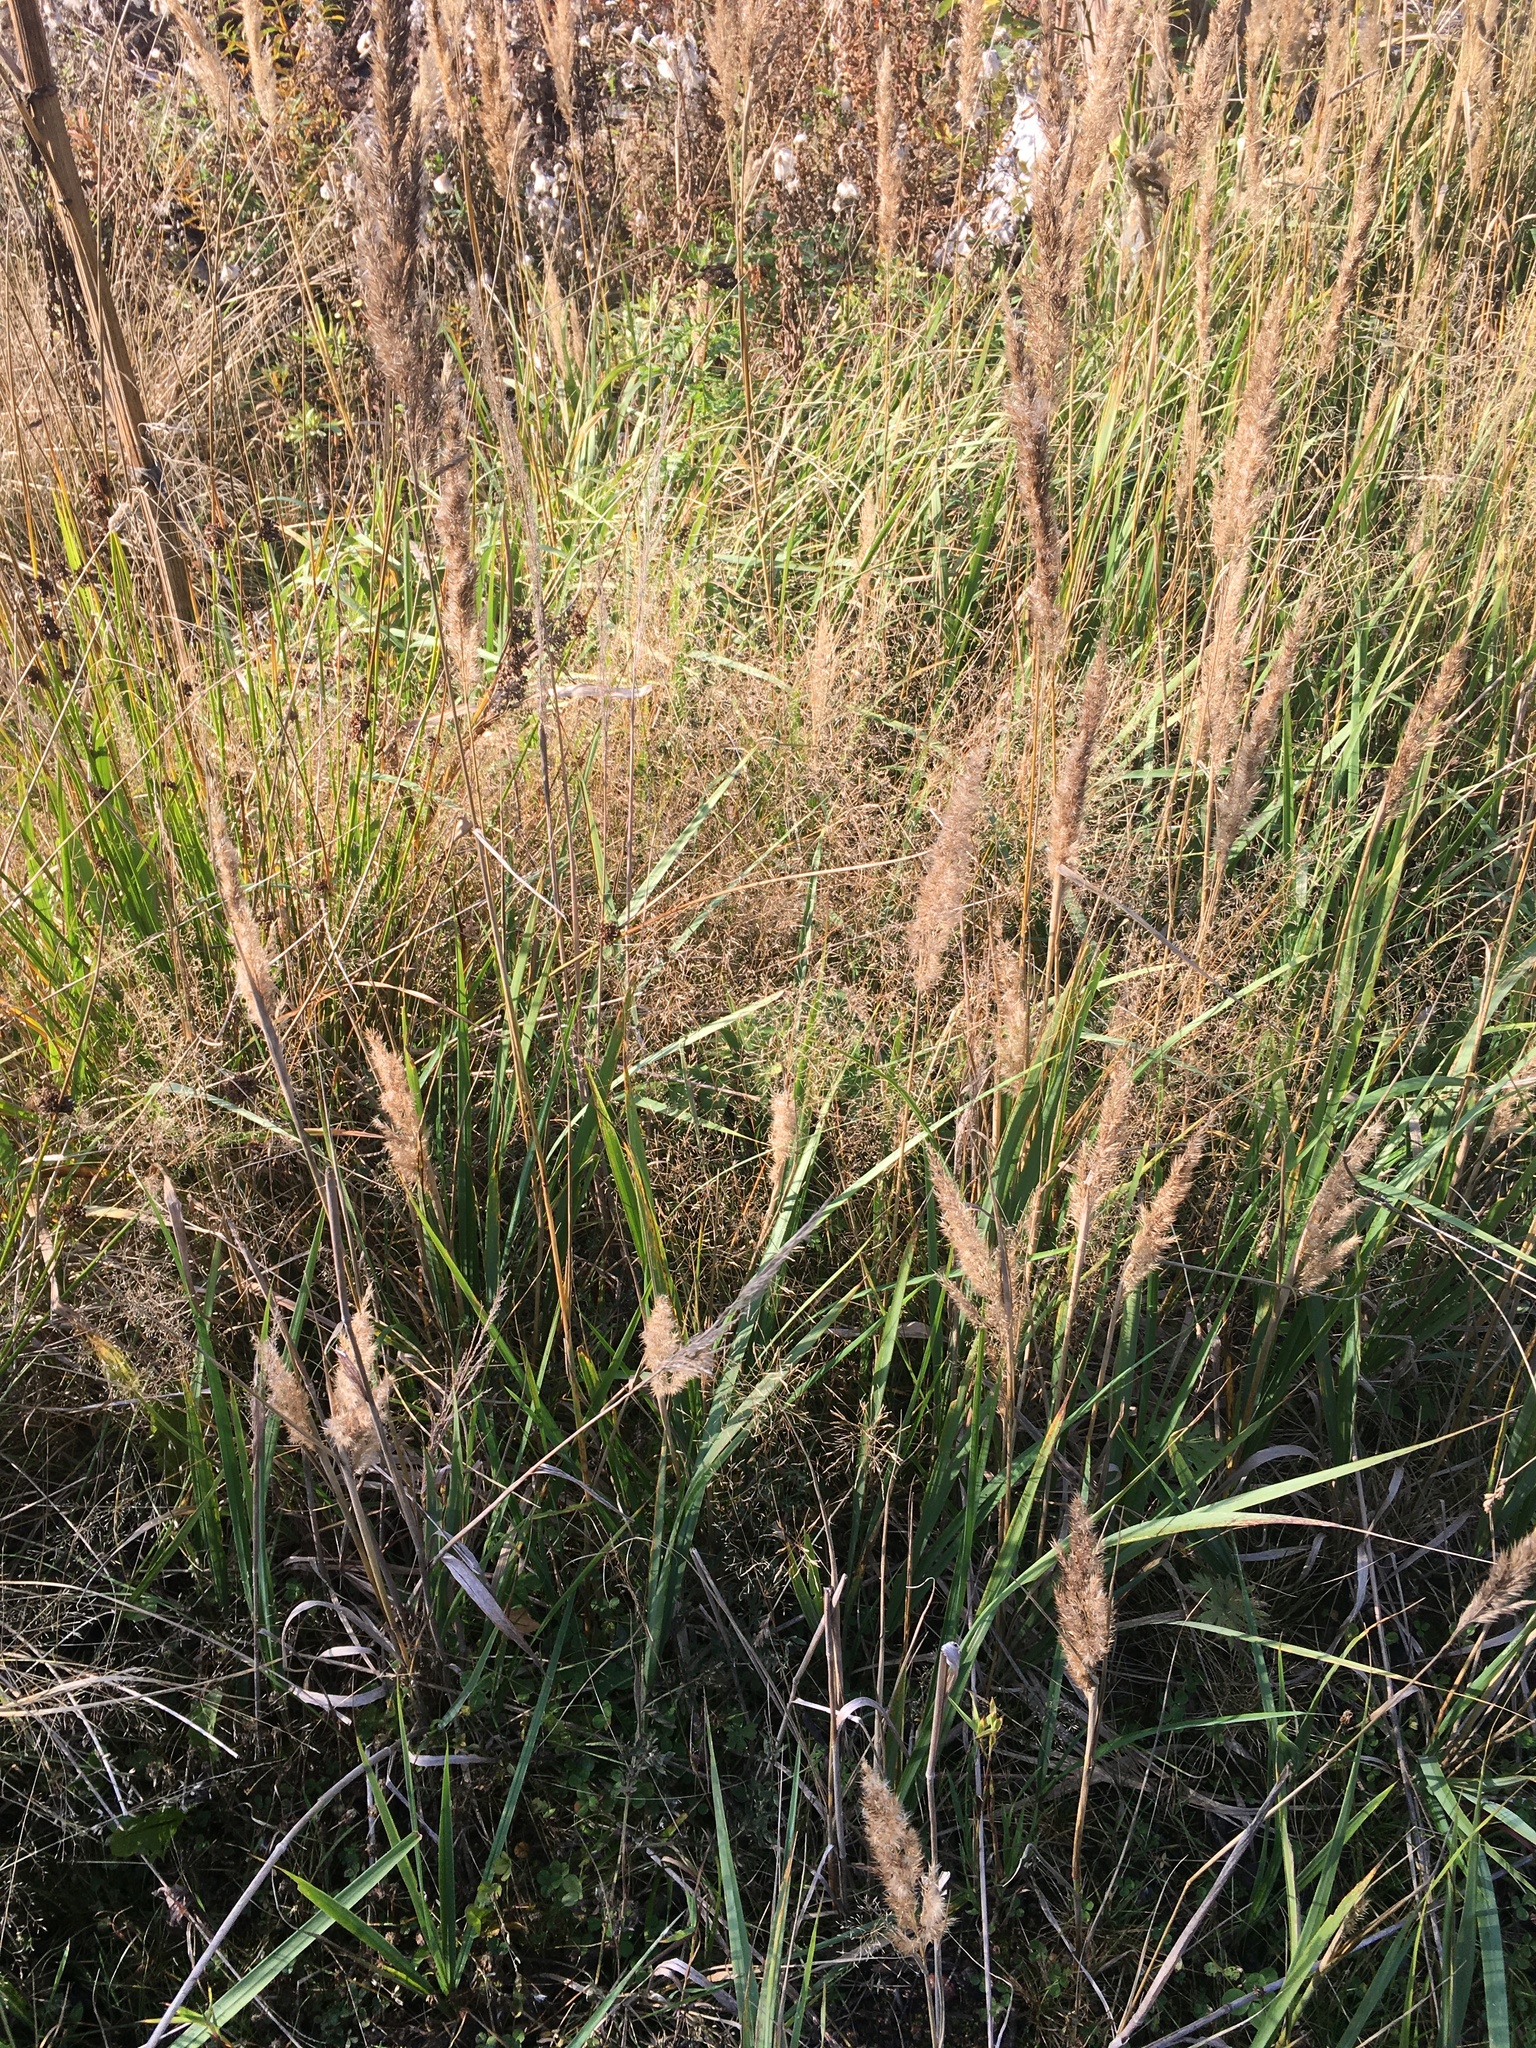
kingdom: Plantae
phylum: Tracheophyta
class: Liliopsida
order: Poales
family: Poaceae
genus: Calamagrostis
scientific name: Calamagrostis epigejos
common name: Wood small-reed
